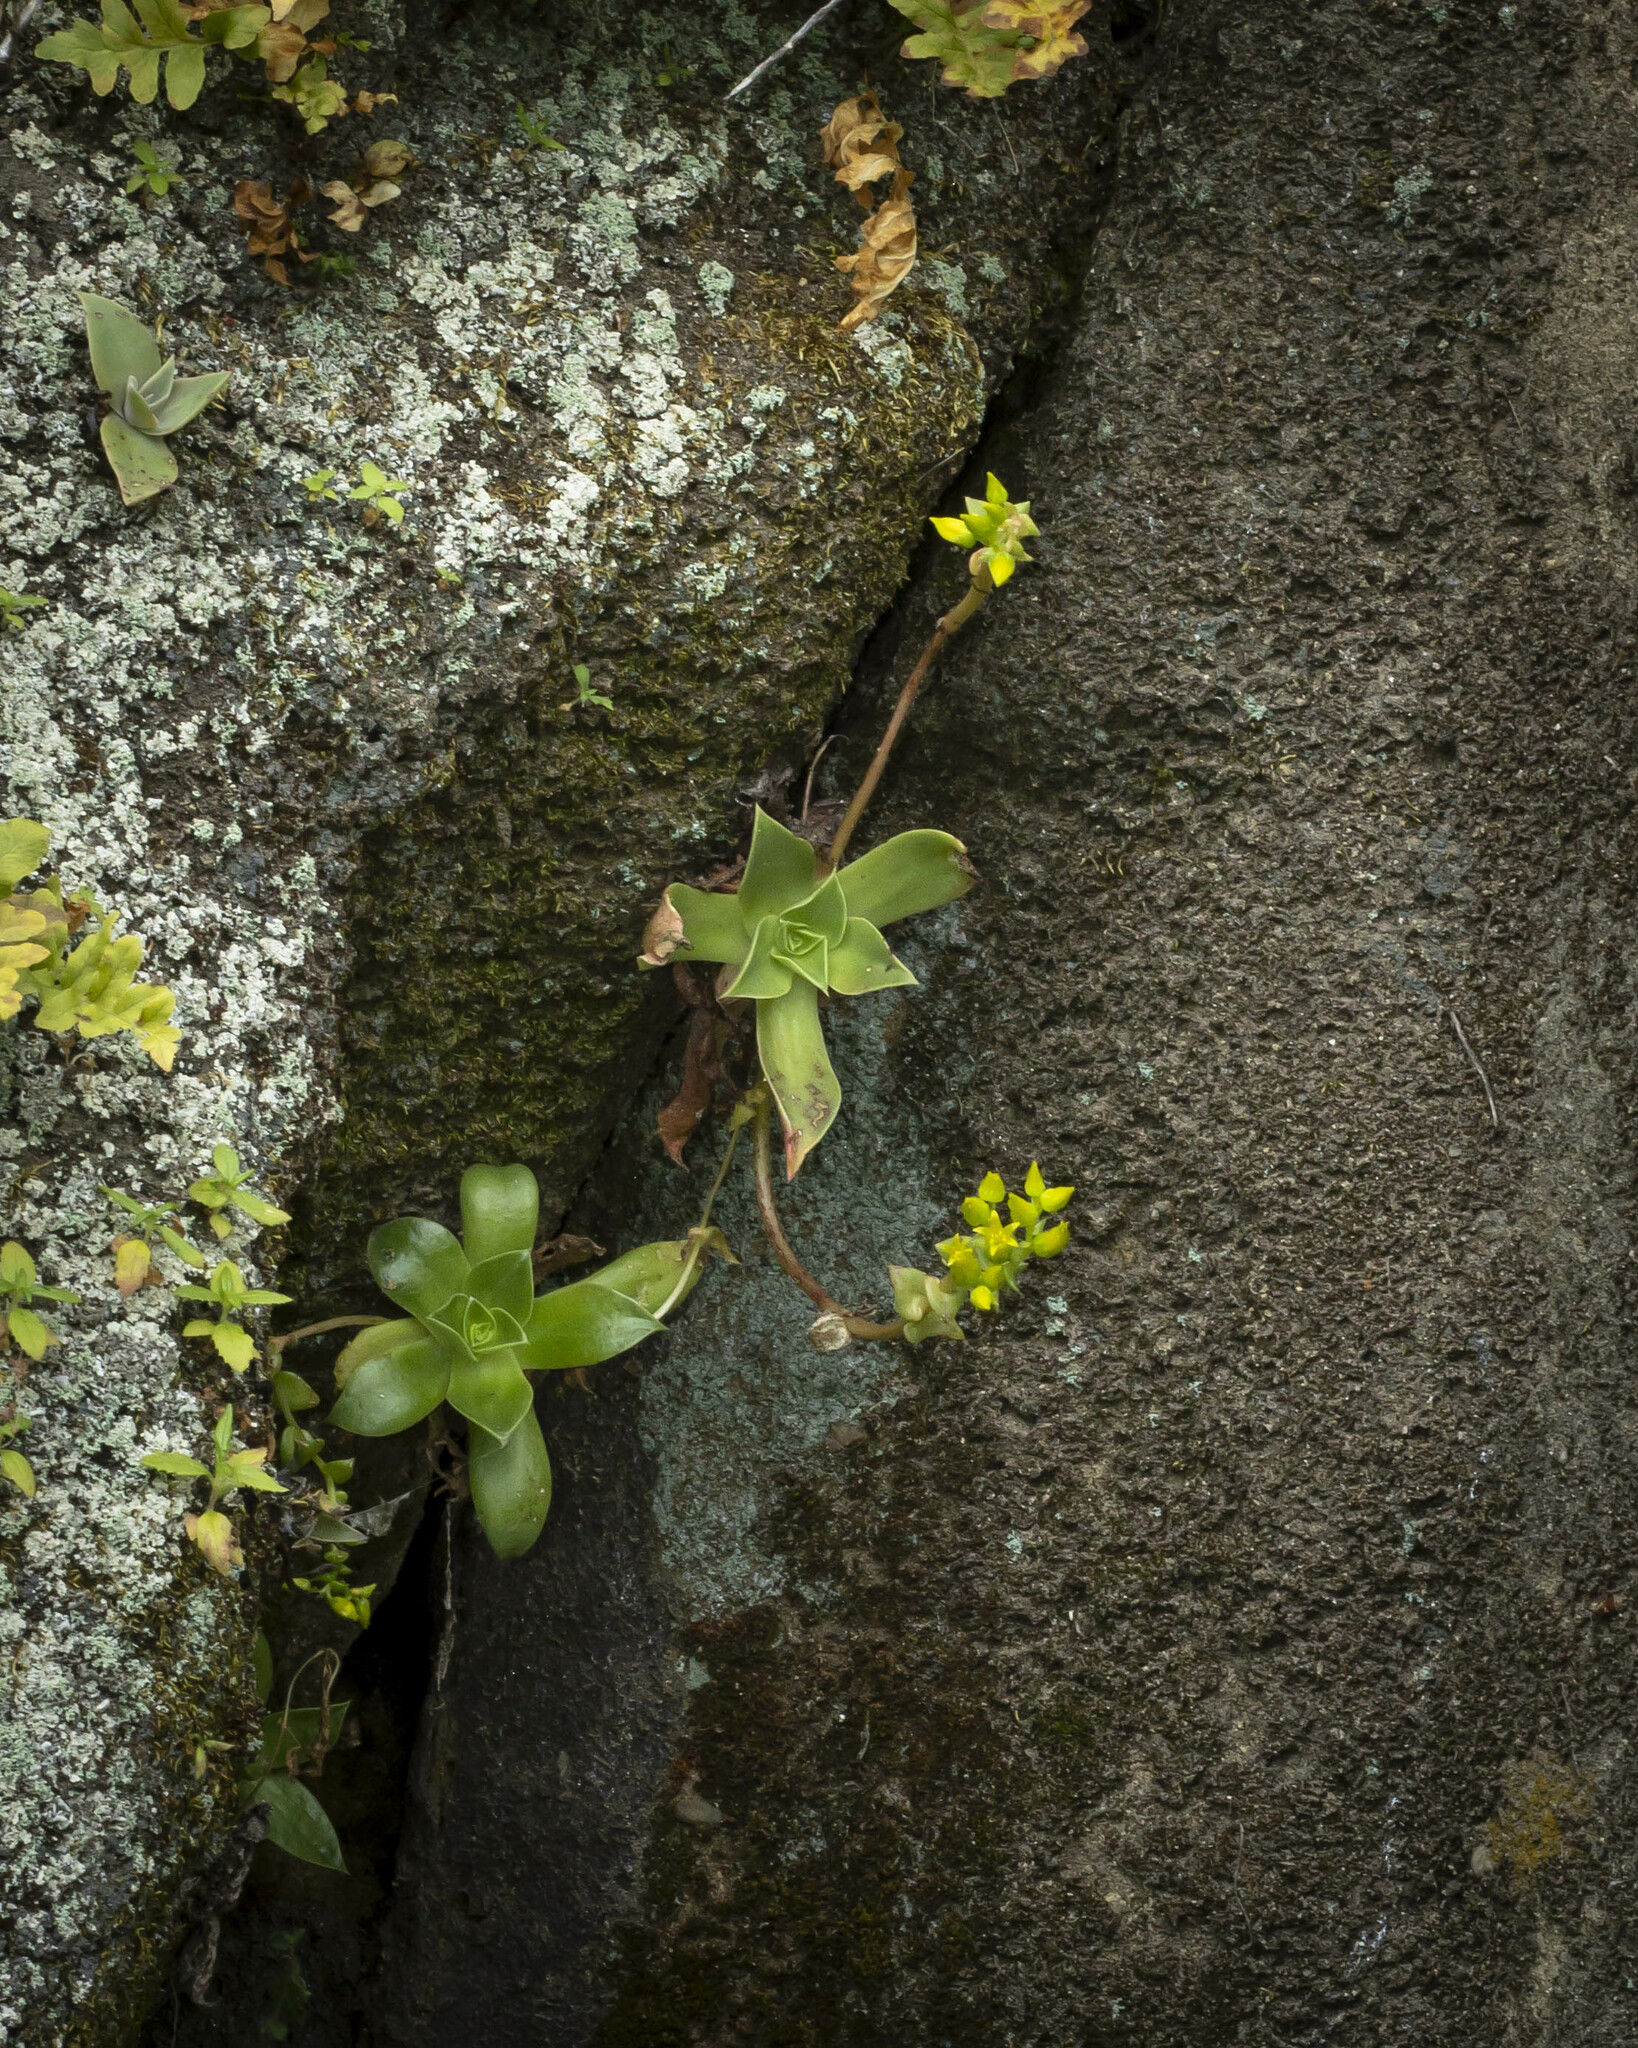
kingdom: Plantae
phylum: Tracheophyta
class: Magnoliopsida
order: Saxifragales
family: Crassulaceae
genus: Dudleya
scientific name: Dudleya stolonifera
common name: Laguna beach dudleya
